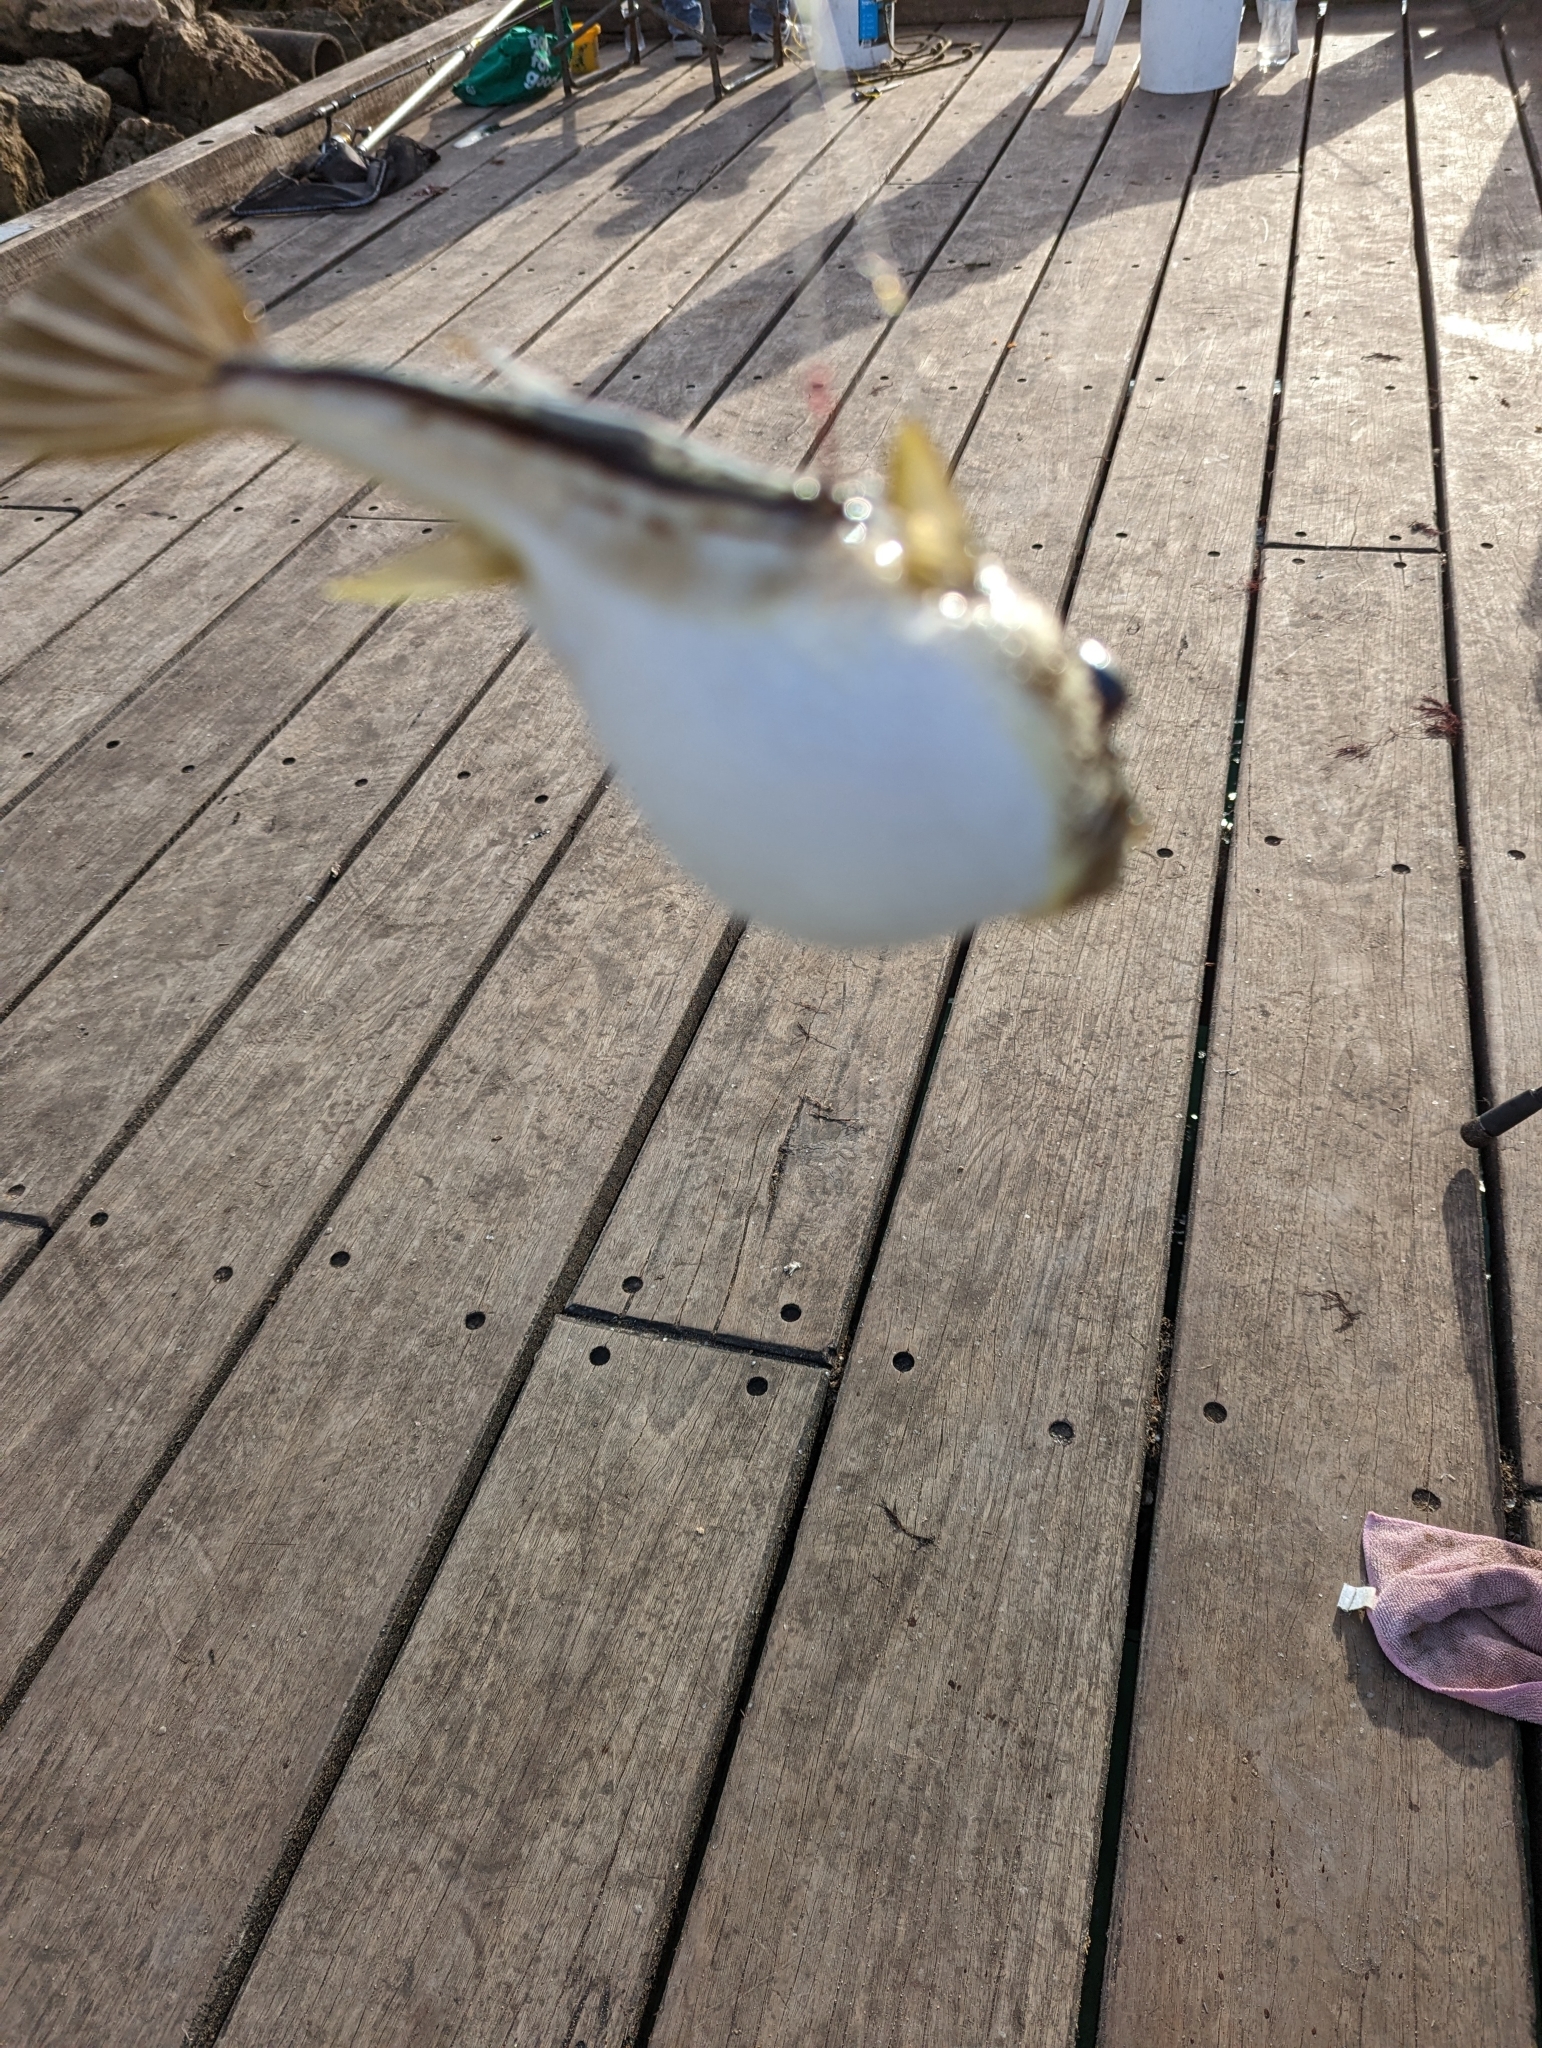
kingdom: Animalia
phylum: Chordata
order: Tetraodontiformes
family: Tetraodontidae
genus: Torquigener
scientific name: Torquigener pleurogramma
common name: Banded toadfish
